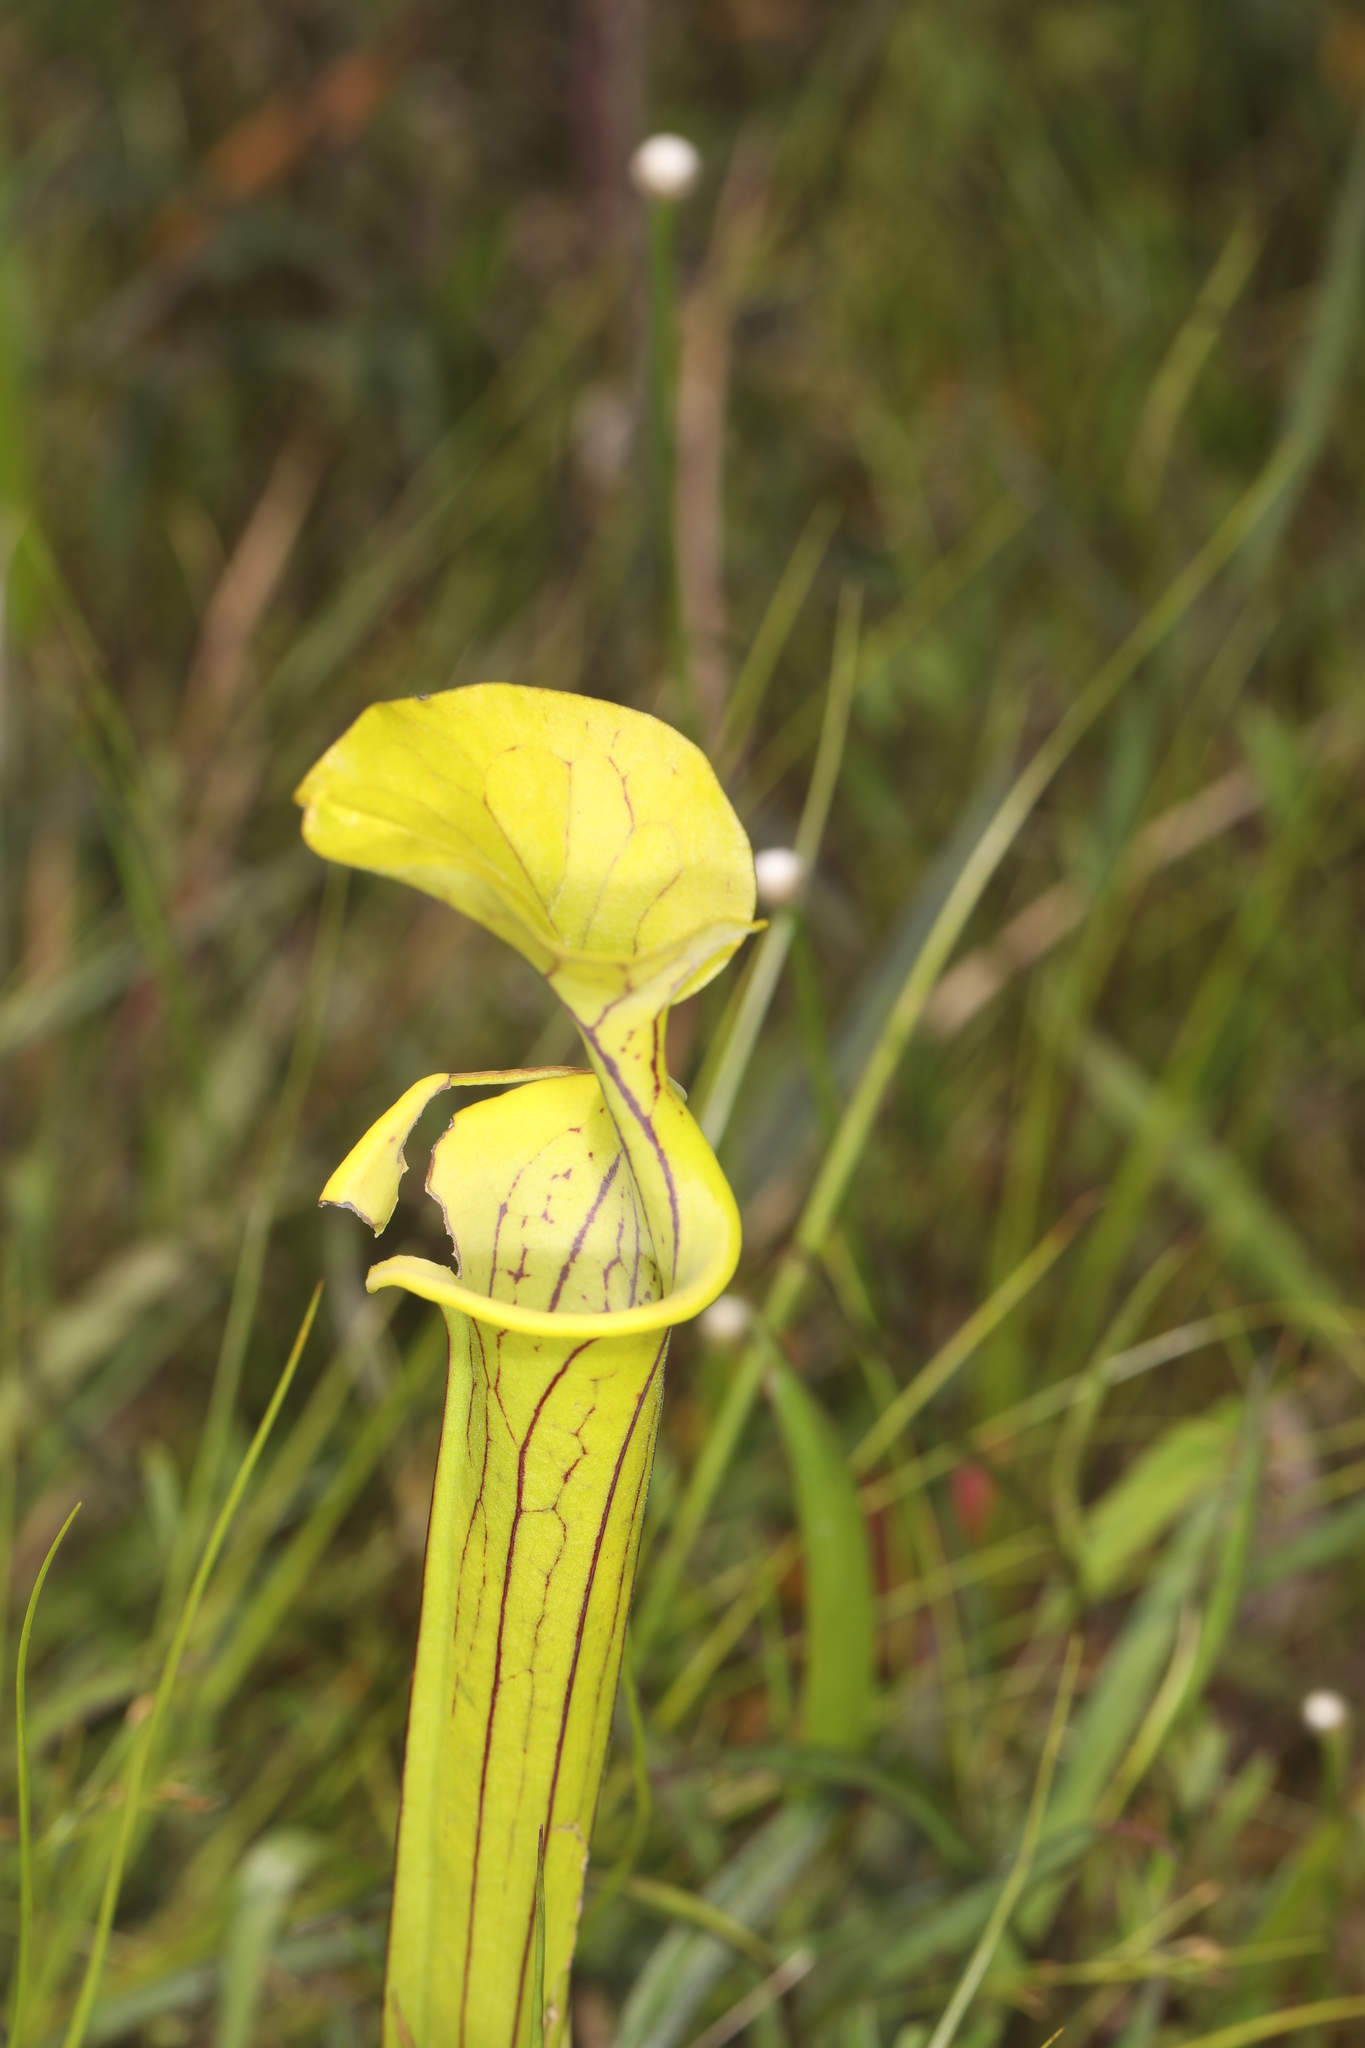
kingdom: Plantae
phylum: Tracheophyta
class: Magnoliopsida
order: Ericales
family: Sarraceniaceae
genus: Sarracenia
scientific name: Sarracenia flava
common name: Trumpets
